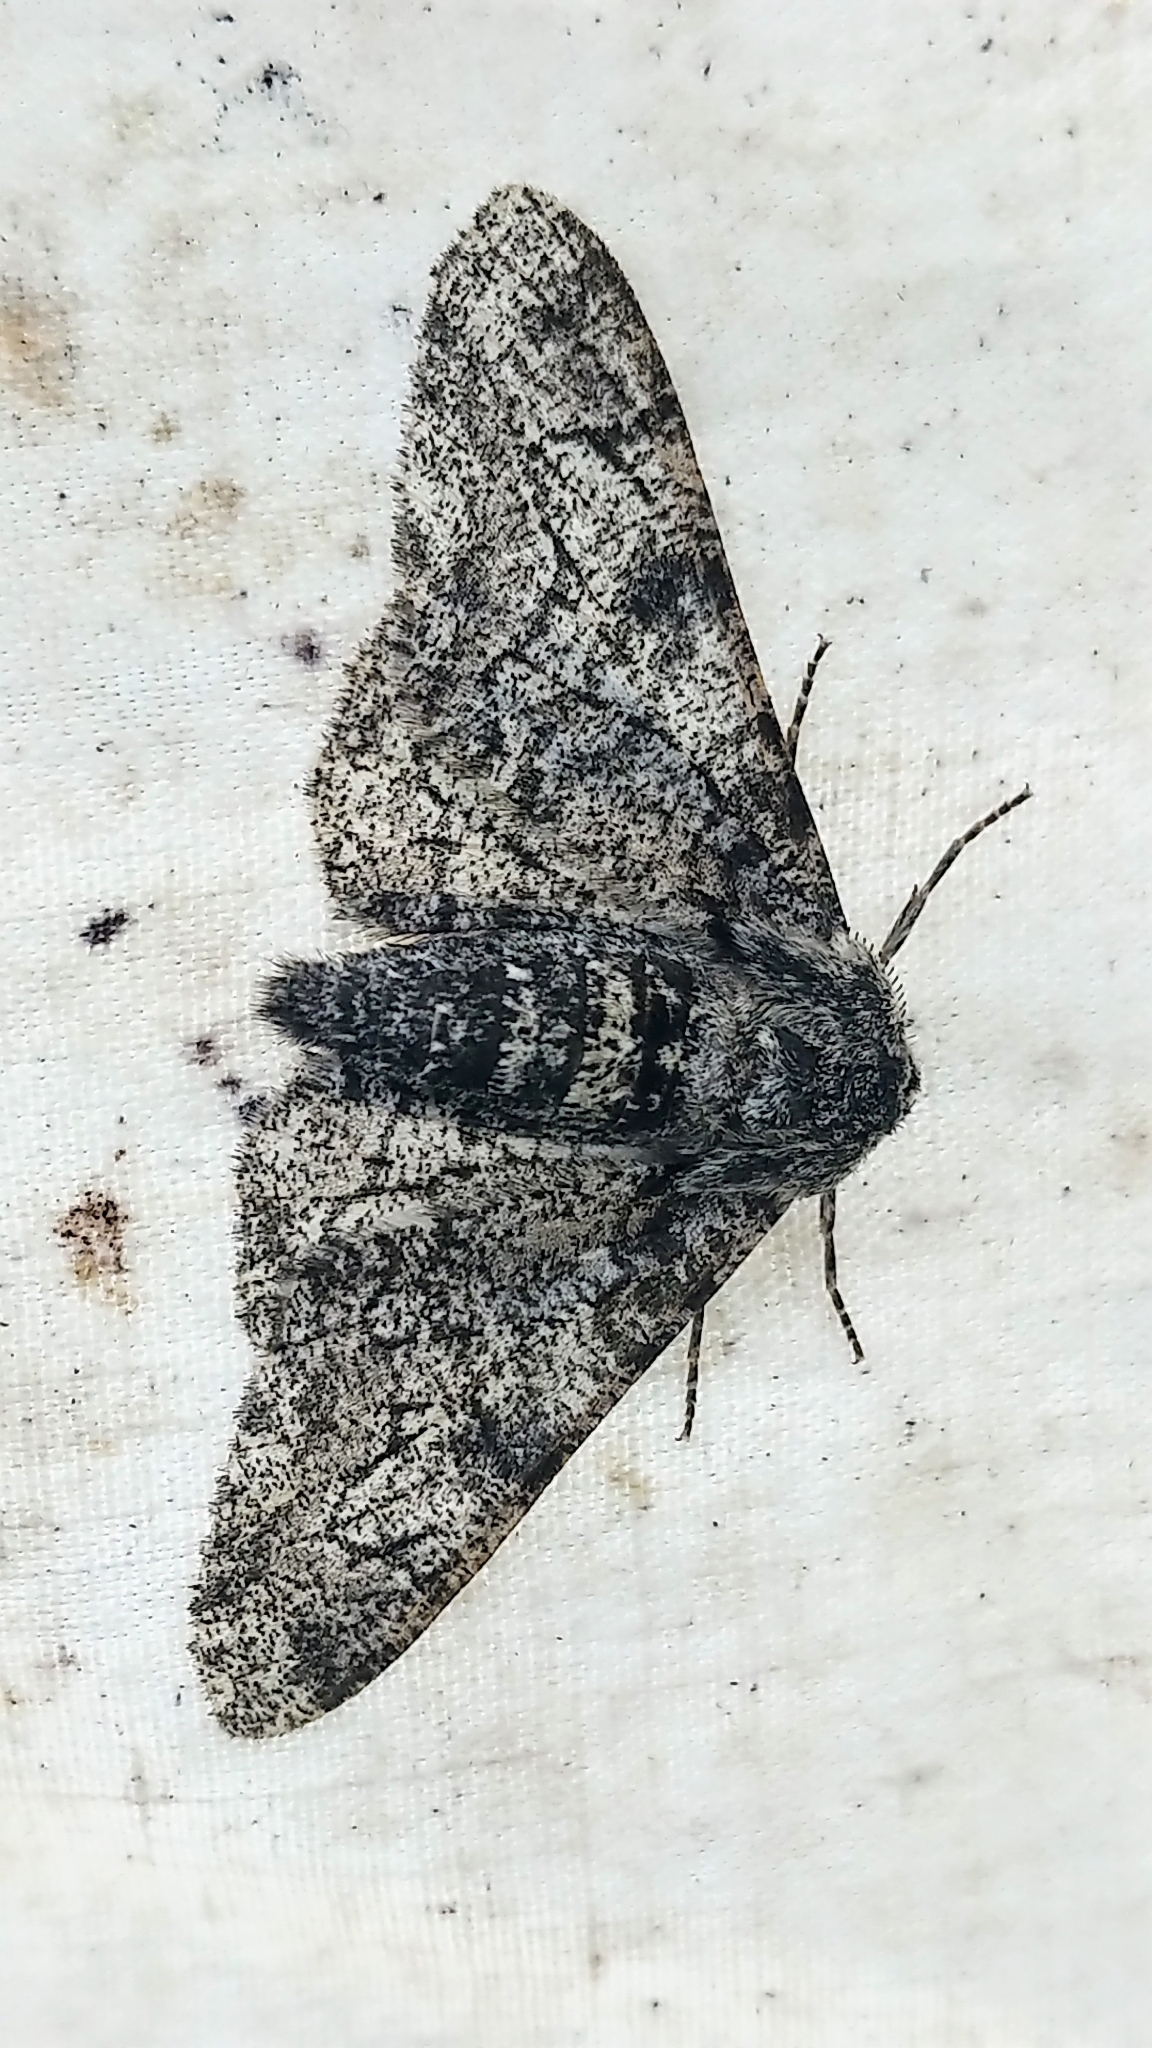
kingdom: Animalia
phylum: Arthropoda
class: Insecta
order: Lepidoptera
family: Geometridae
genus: Biston
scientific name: Biston betularia
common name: Peppered moth
